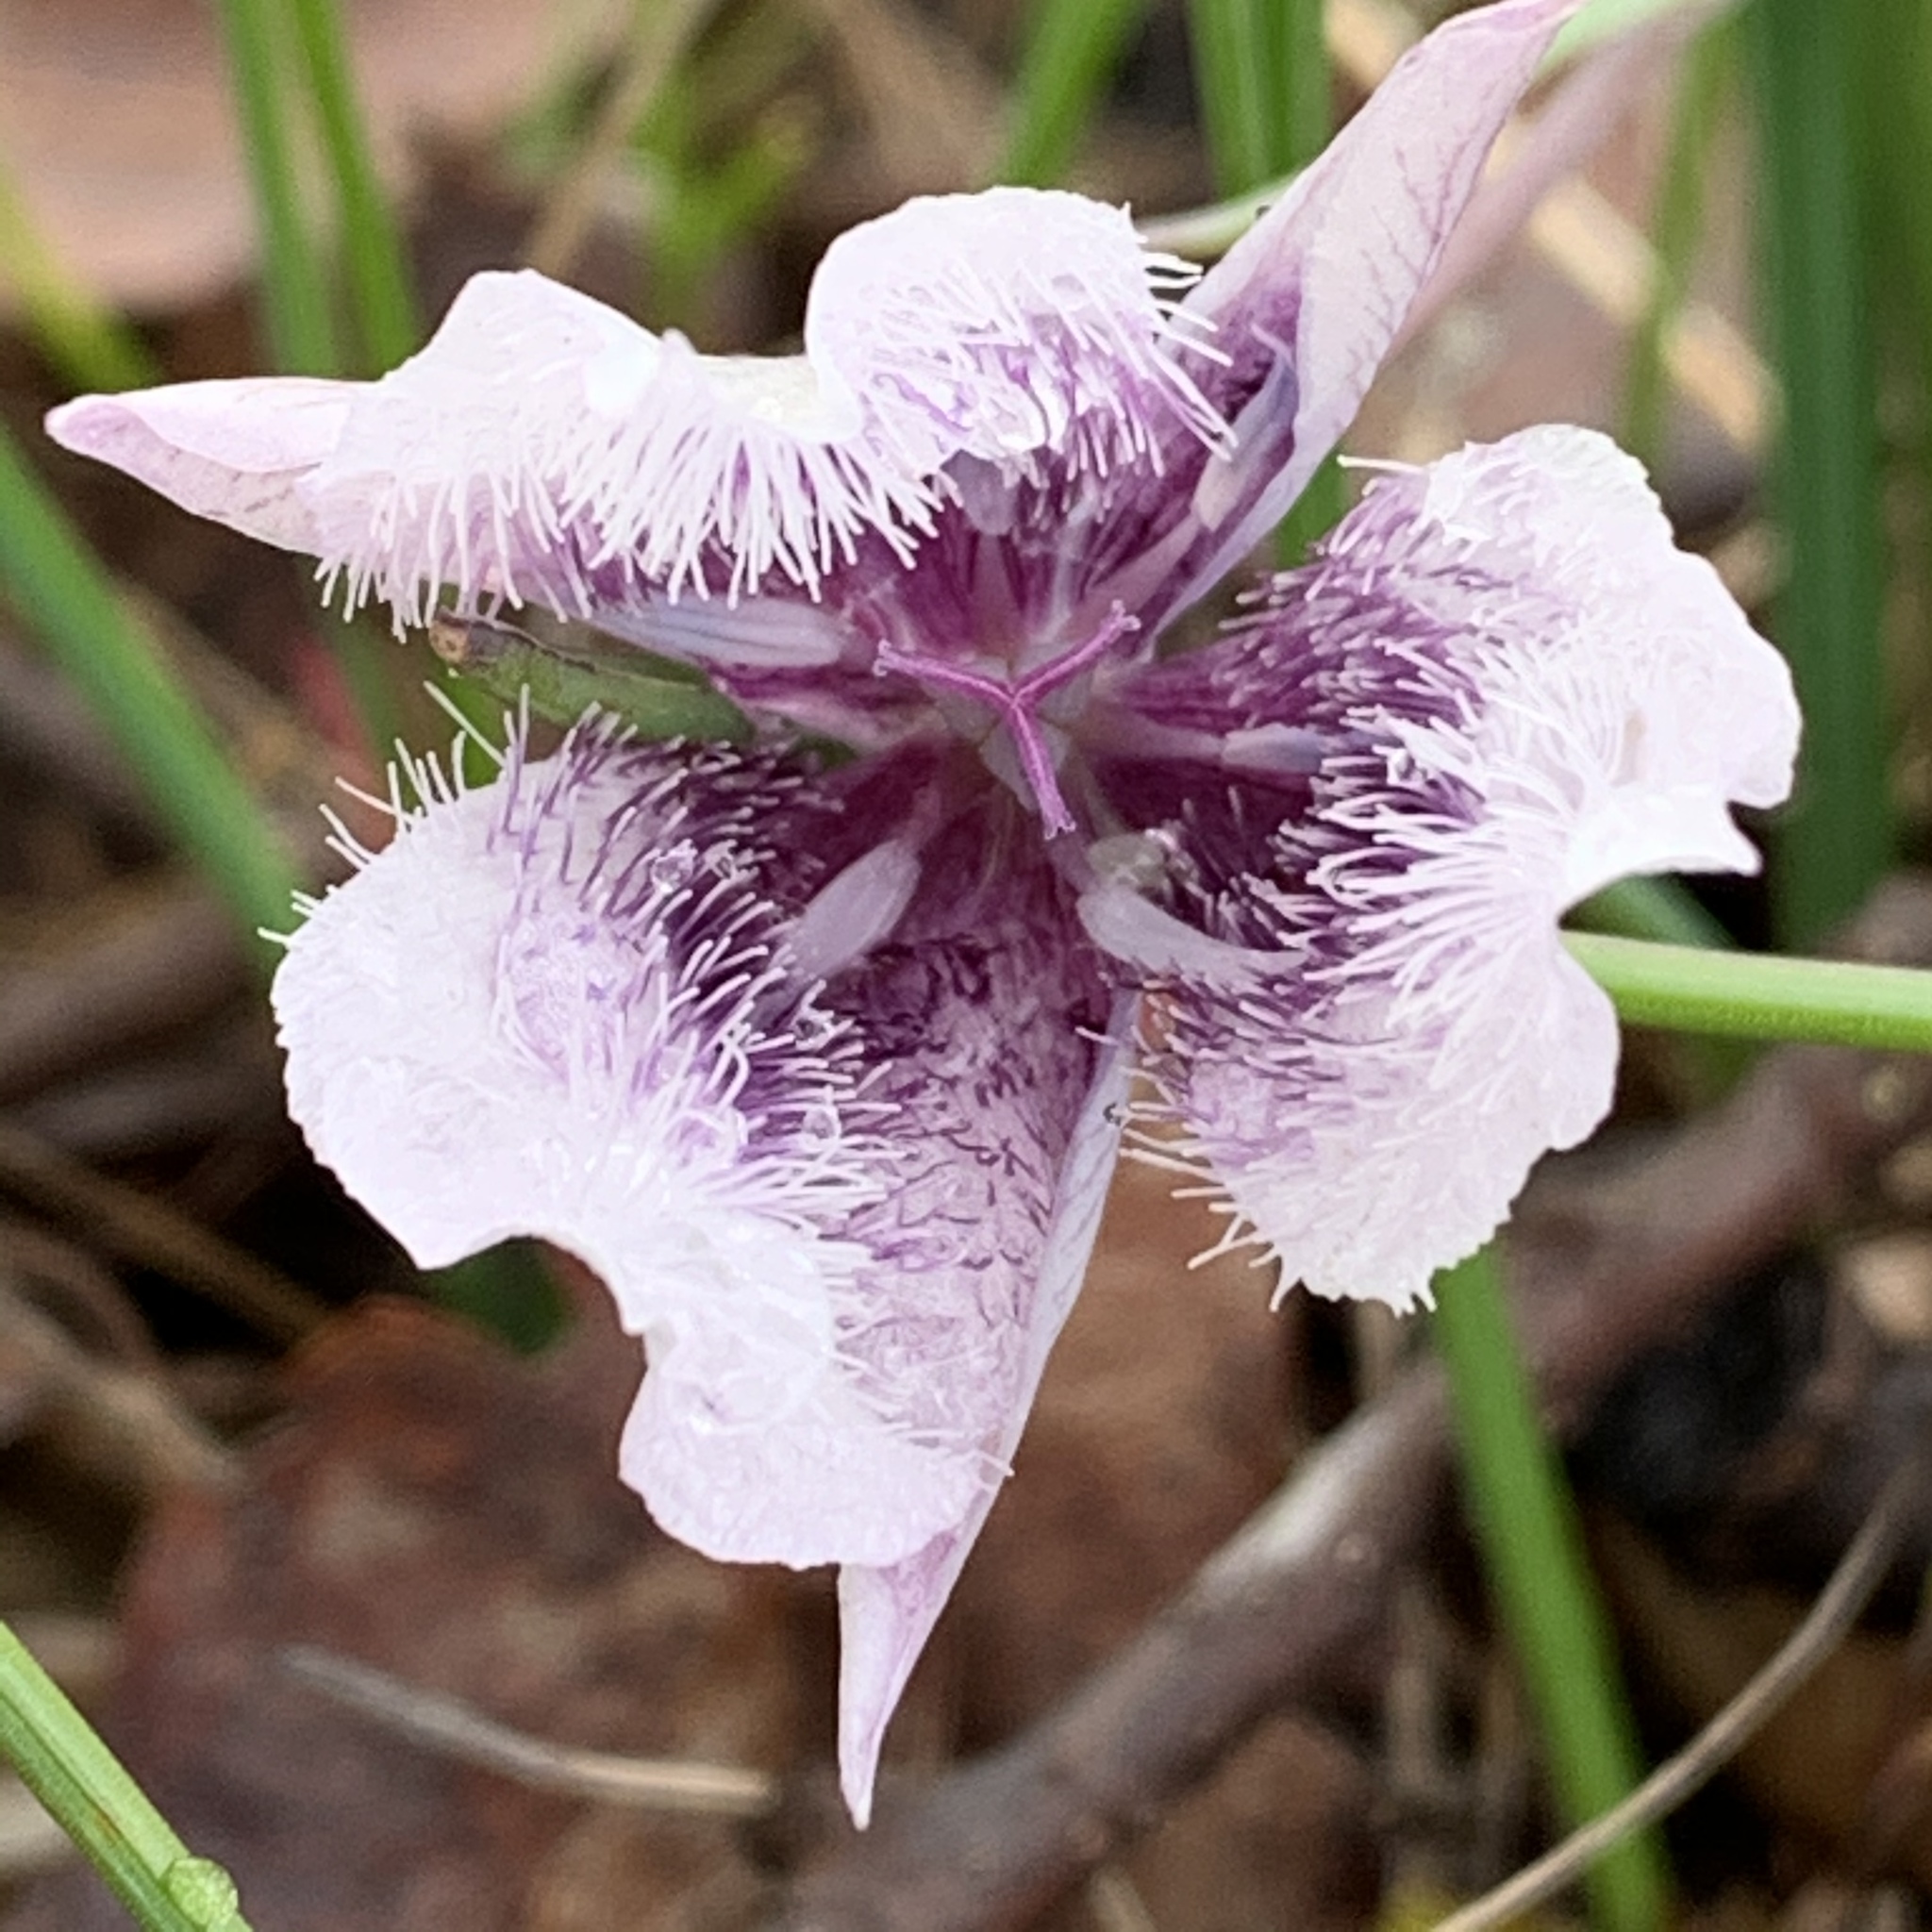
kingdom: Plantae
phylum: Tracheophyta
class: Liliopsida
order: Liliales
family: Liliaceae
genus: Calochortus
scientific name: Calochortus tolmiei
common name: Pussy-ears
